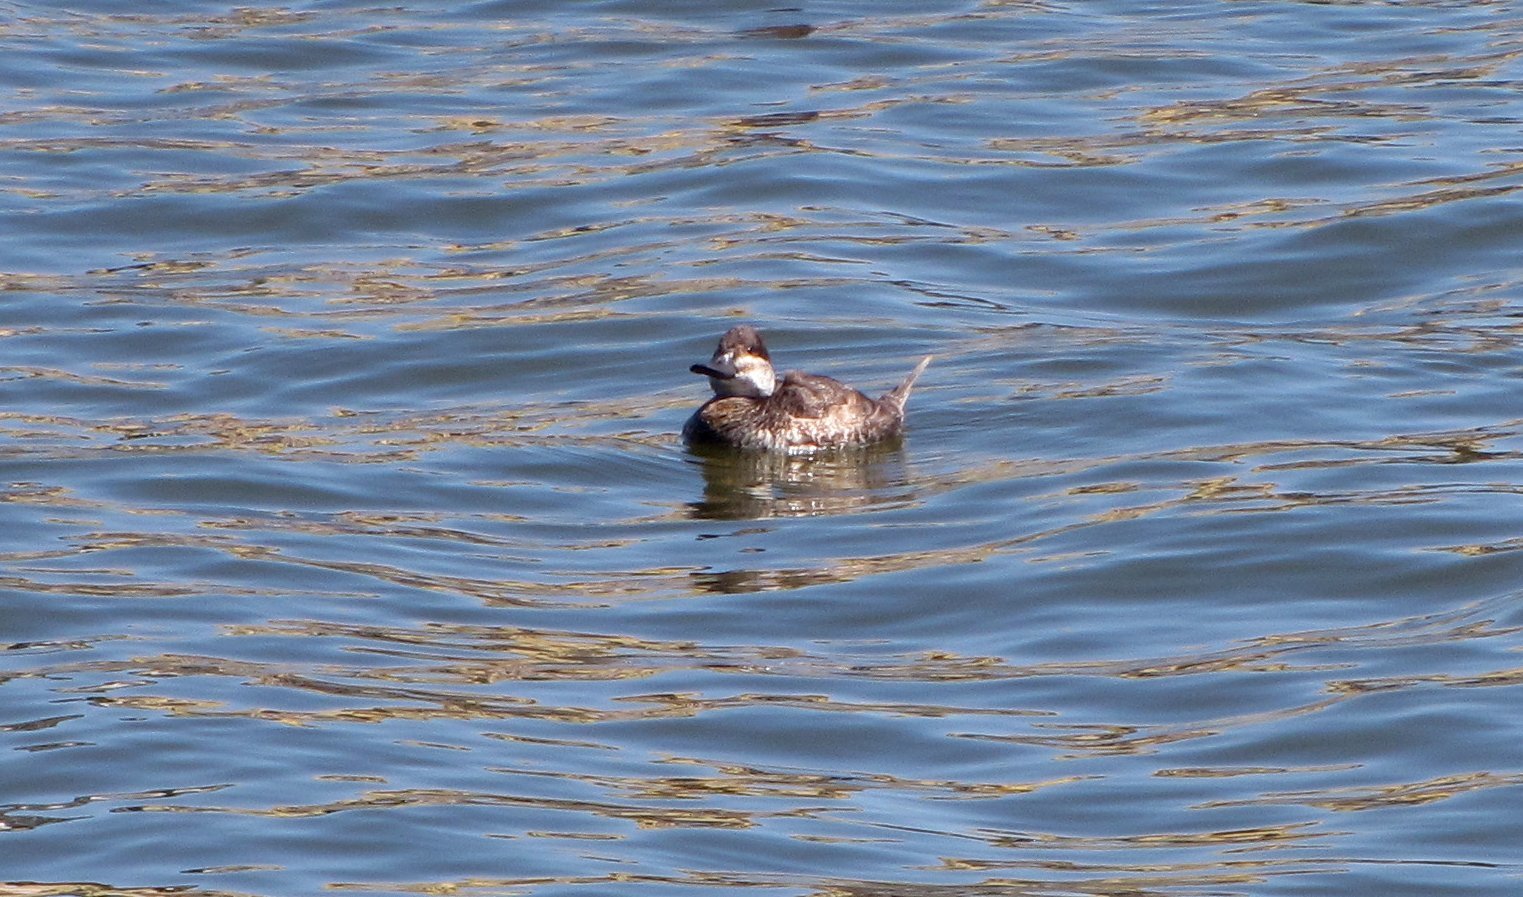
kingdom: Animalia
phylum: Chordata
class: Aves
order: Anseriformes
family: Anatidae
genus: Oxyura
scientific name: Oxyura jamaicensis
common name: Ruddy duck
